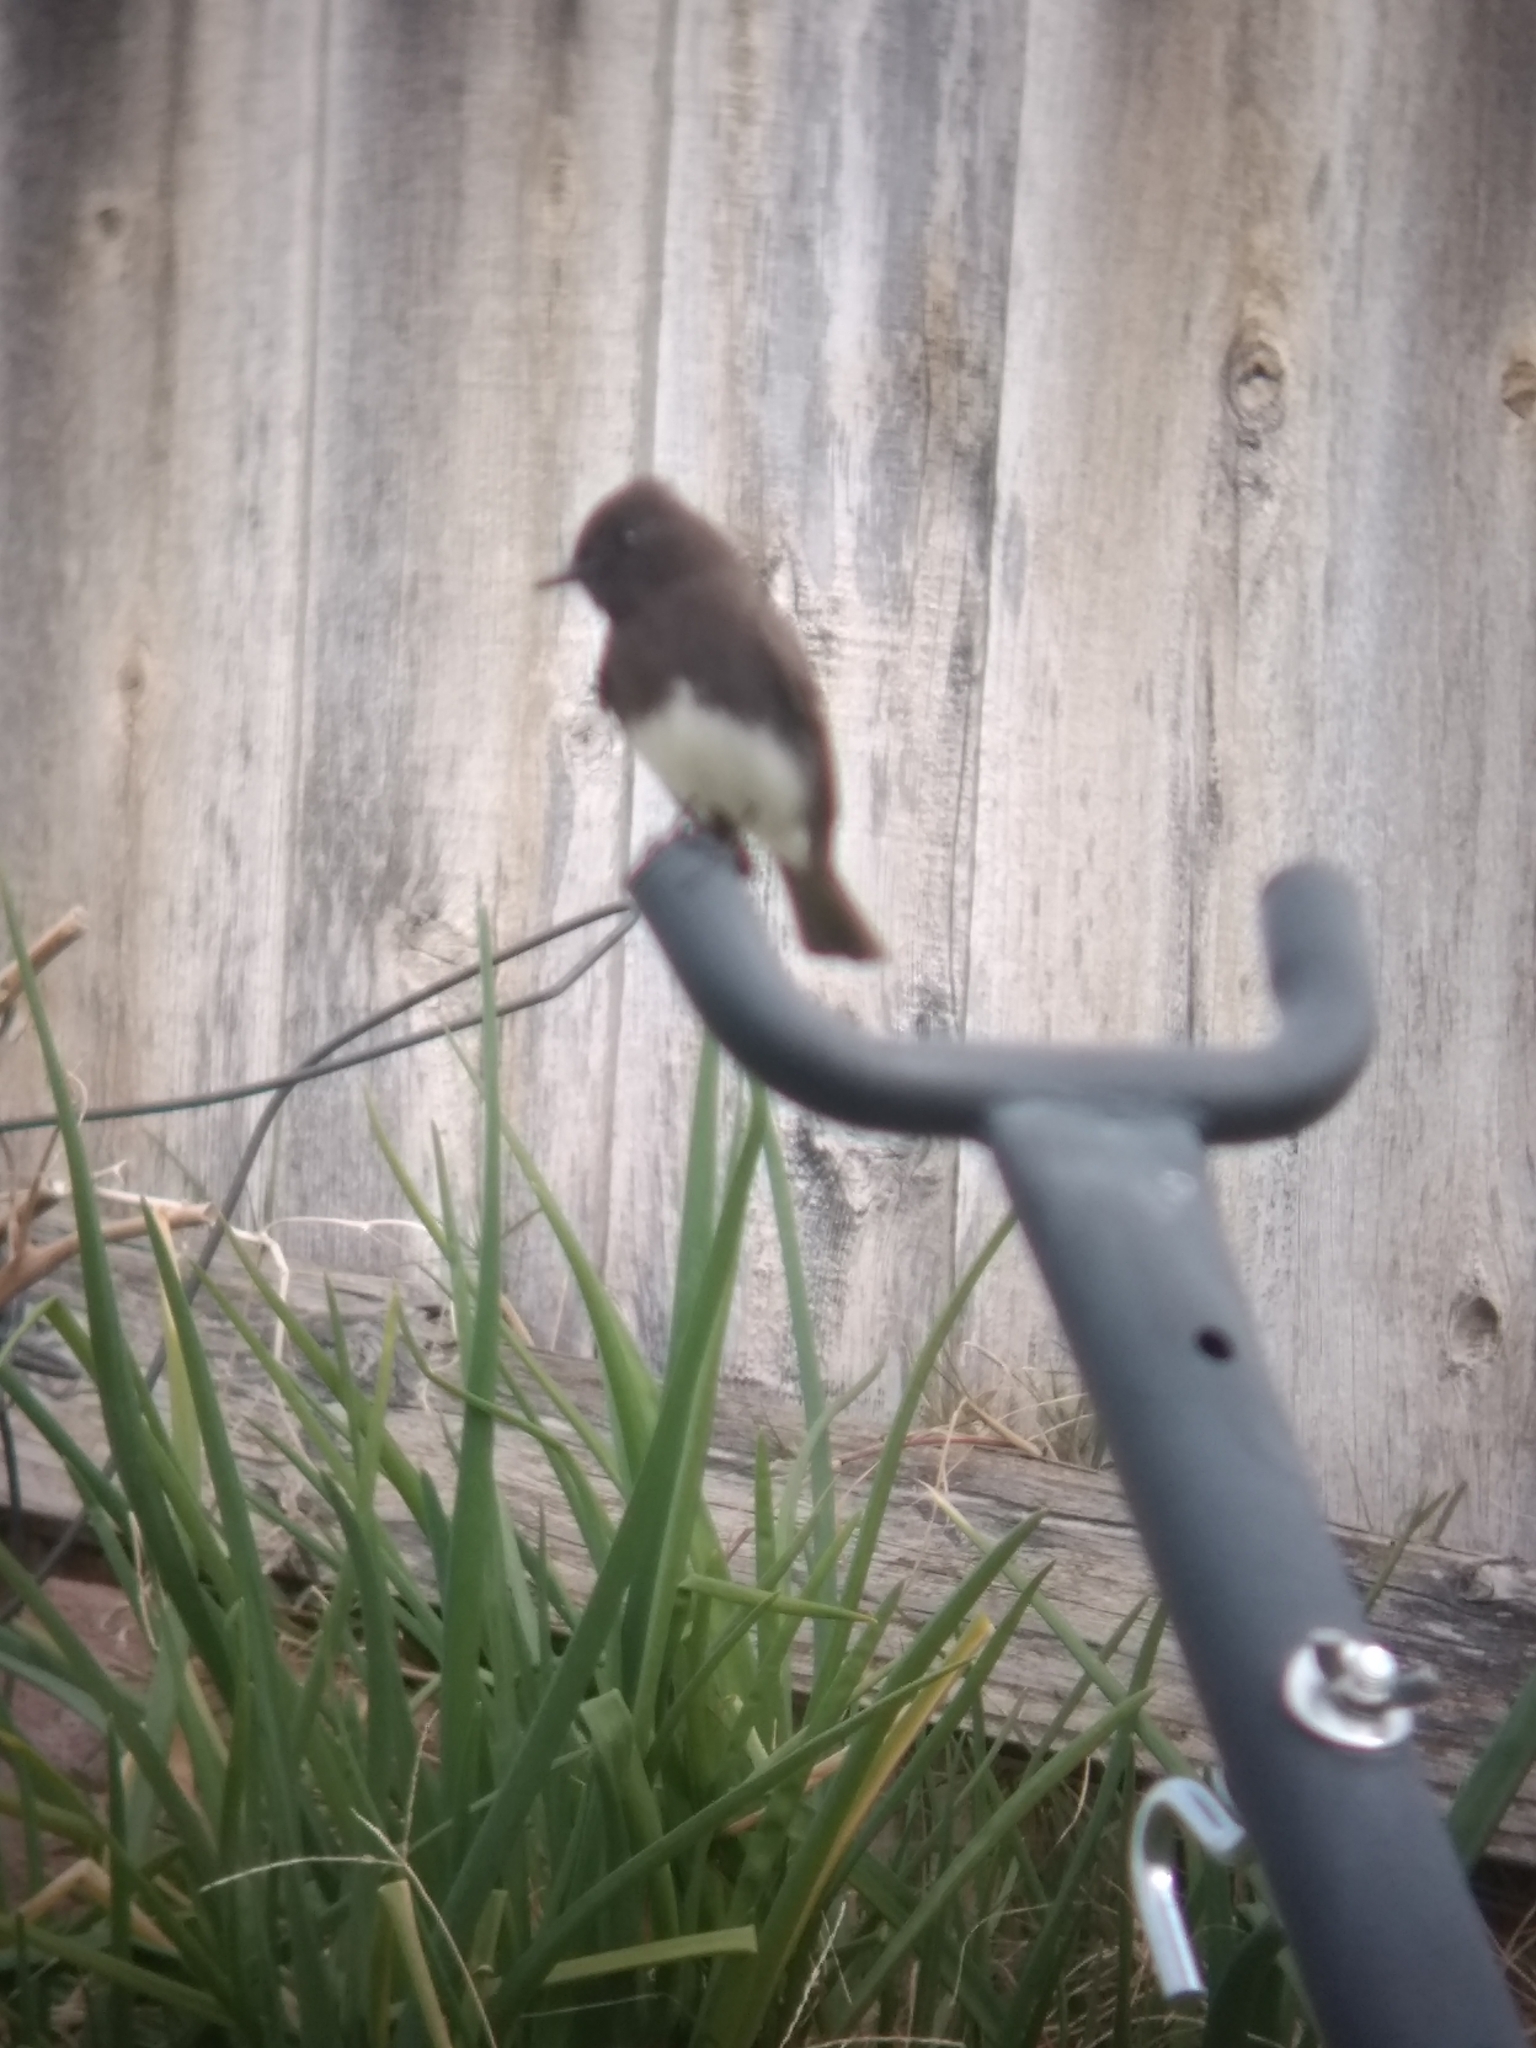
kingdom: Animalia
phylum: Chordata
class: Aves
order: Passeriformes
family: Tyrannidae
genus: Sayornis
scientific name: Sayornis nigricans
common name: Black phoebe
